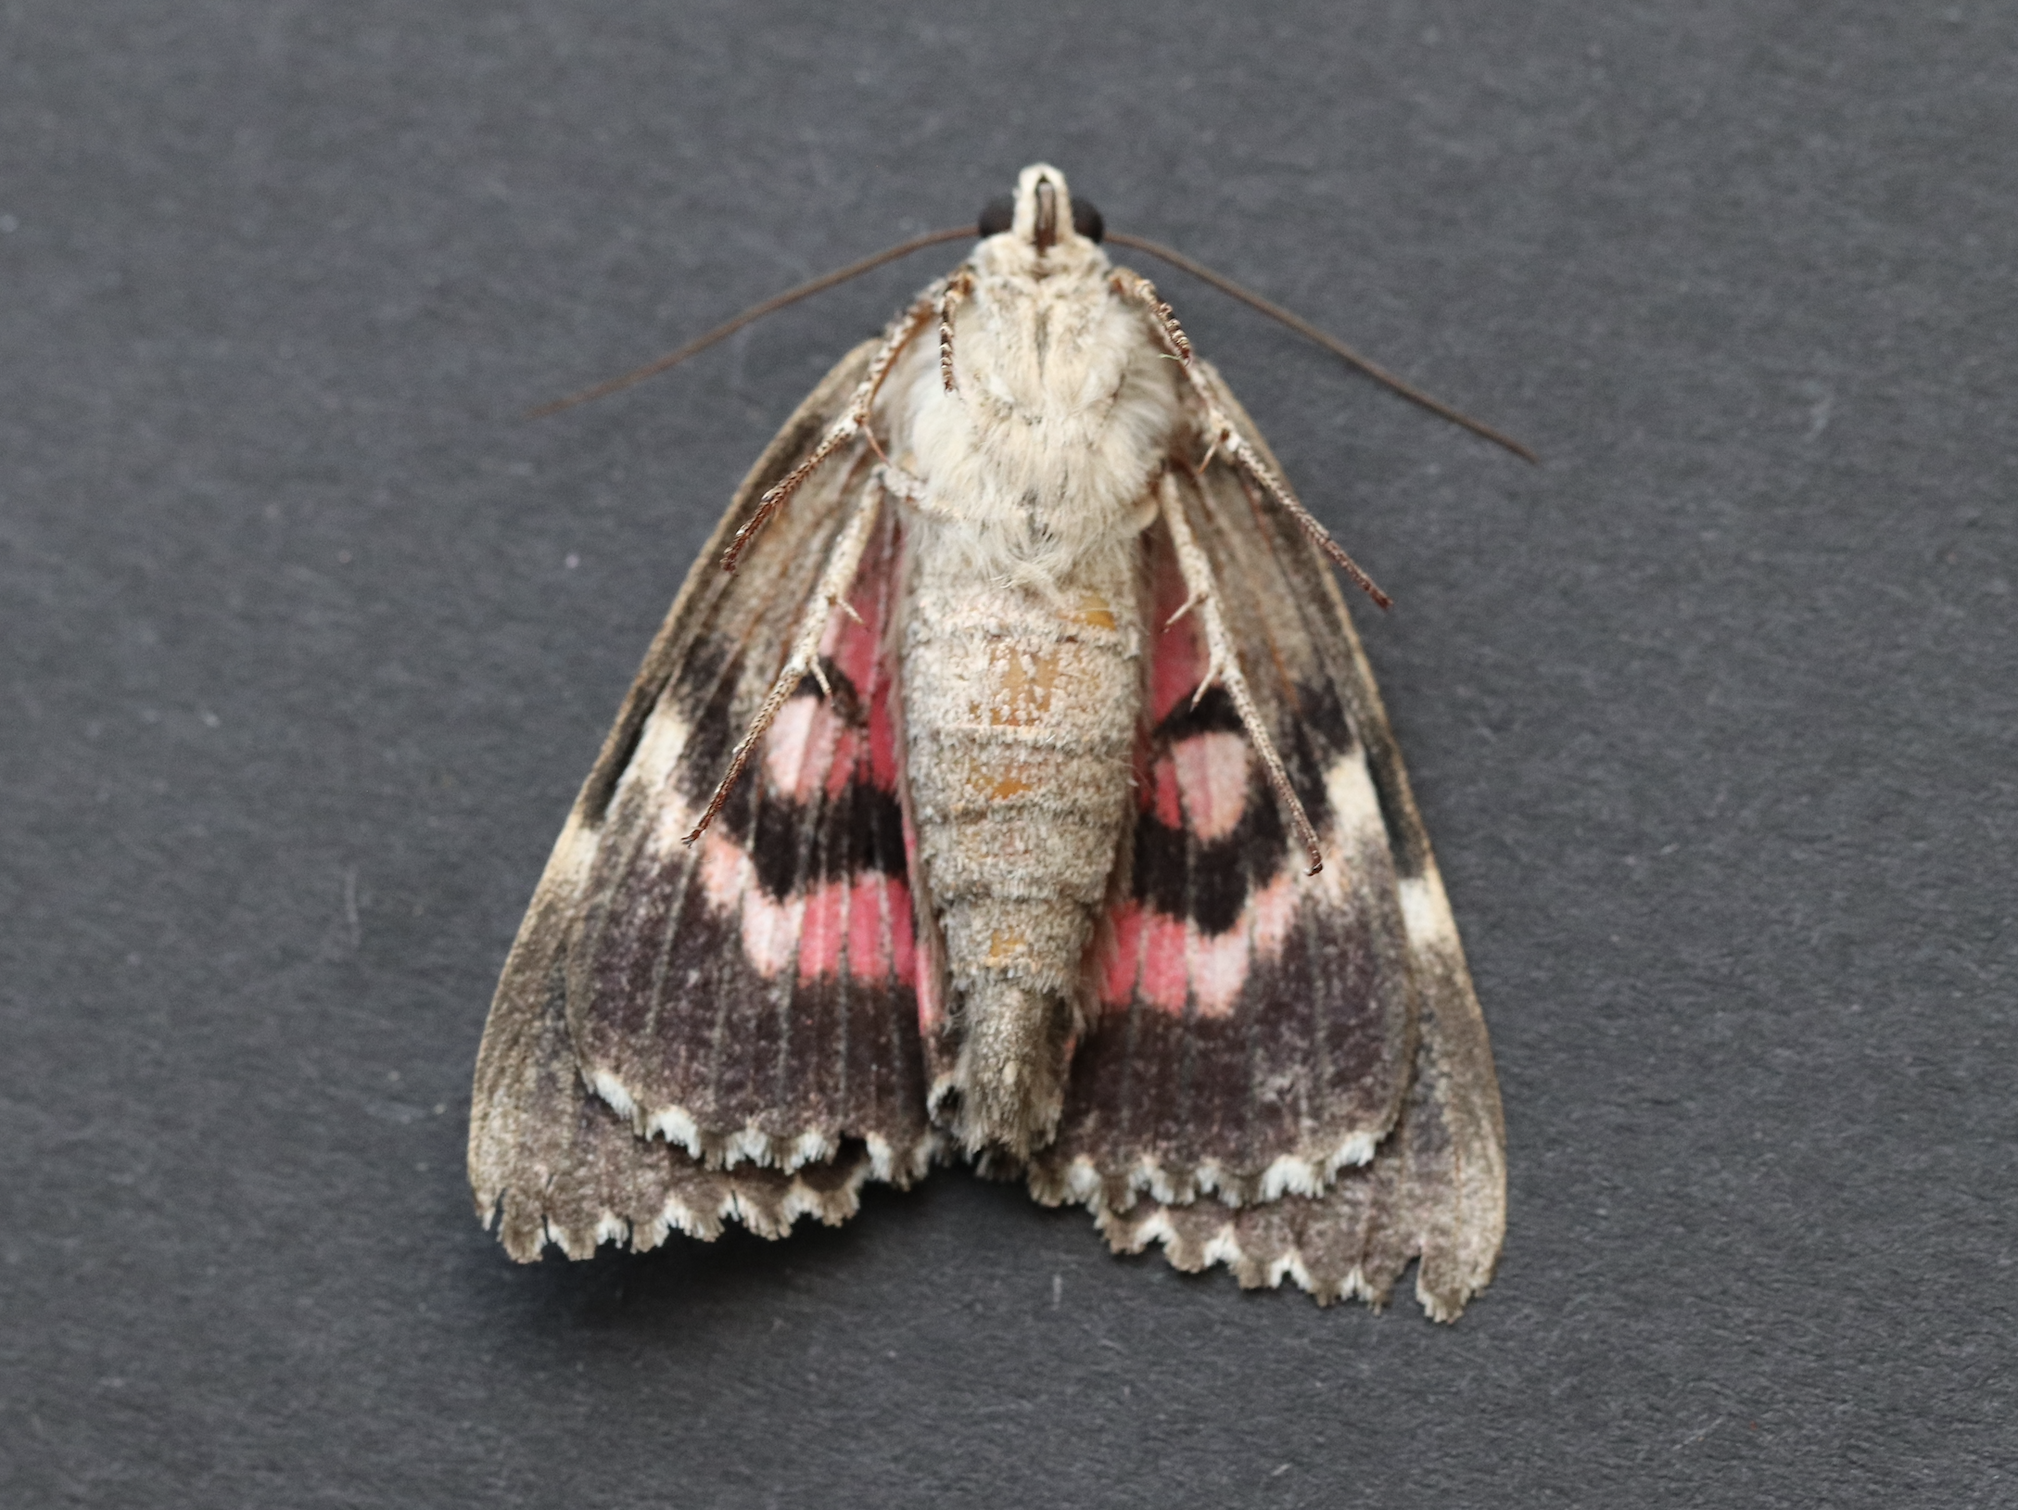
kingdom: Animalia
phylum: Arthropoda
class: Insecta
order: Lepidoptera
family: Erebidae
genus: Catocala
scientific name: Catocala sponsa
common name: Dark crimson underwing
